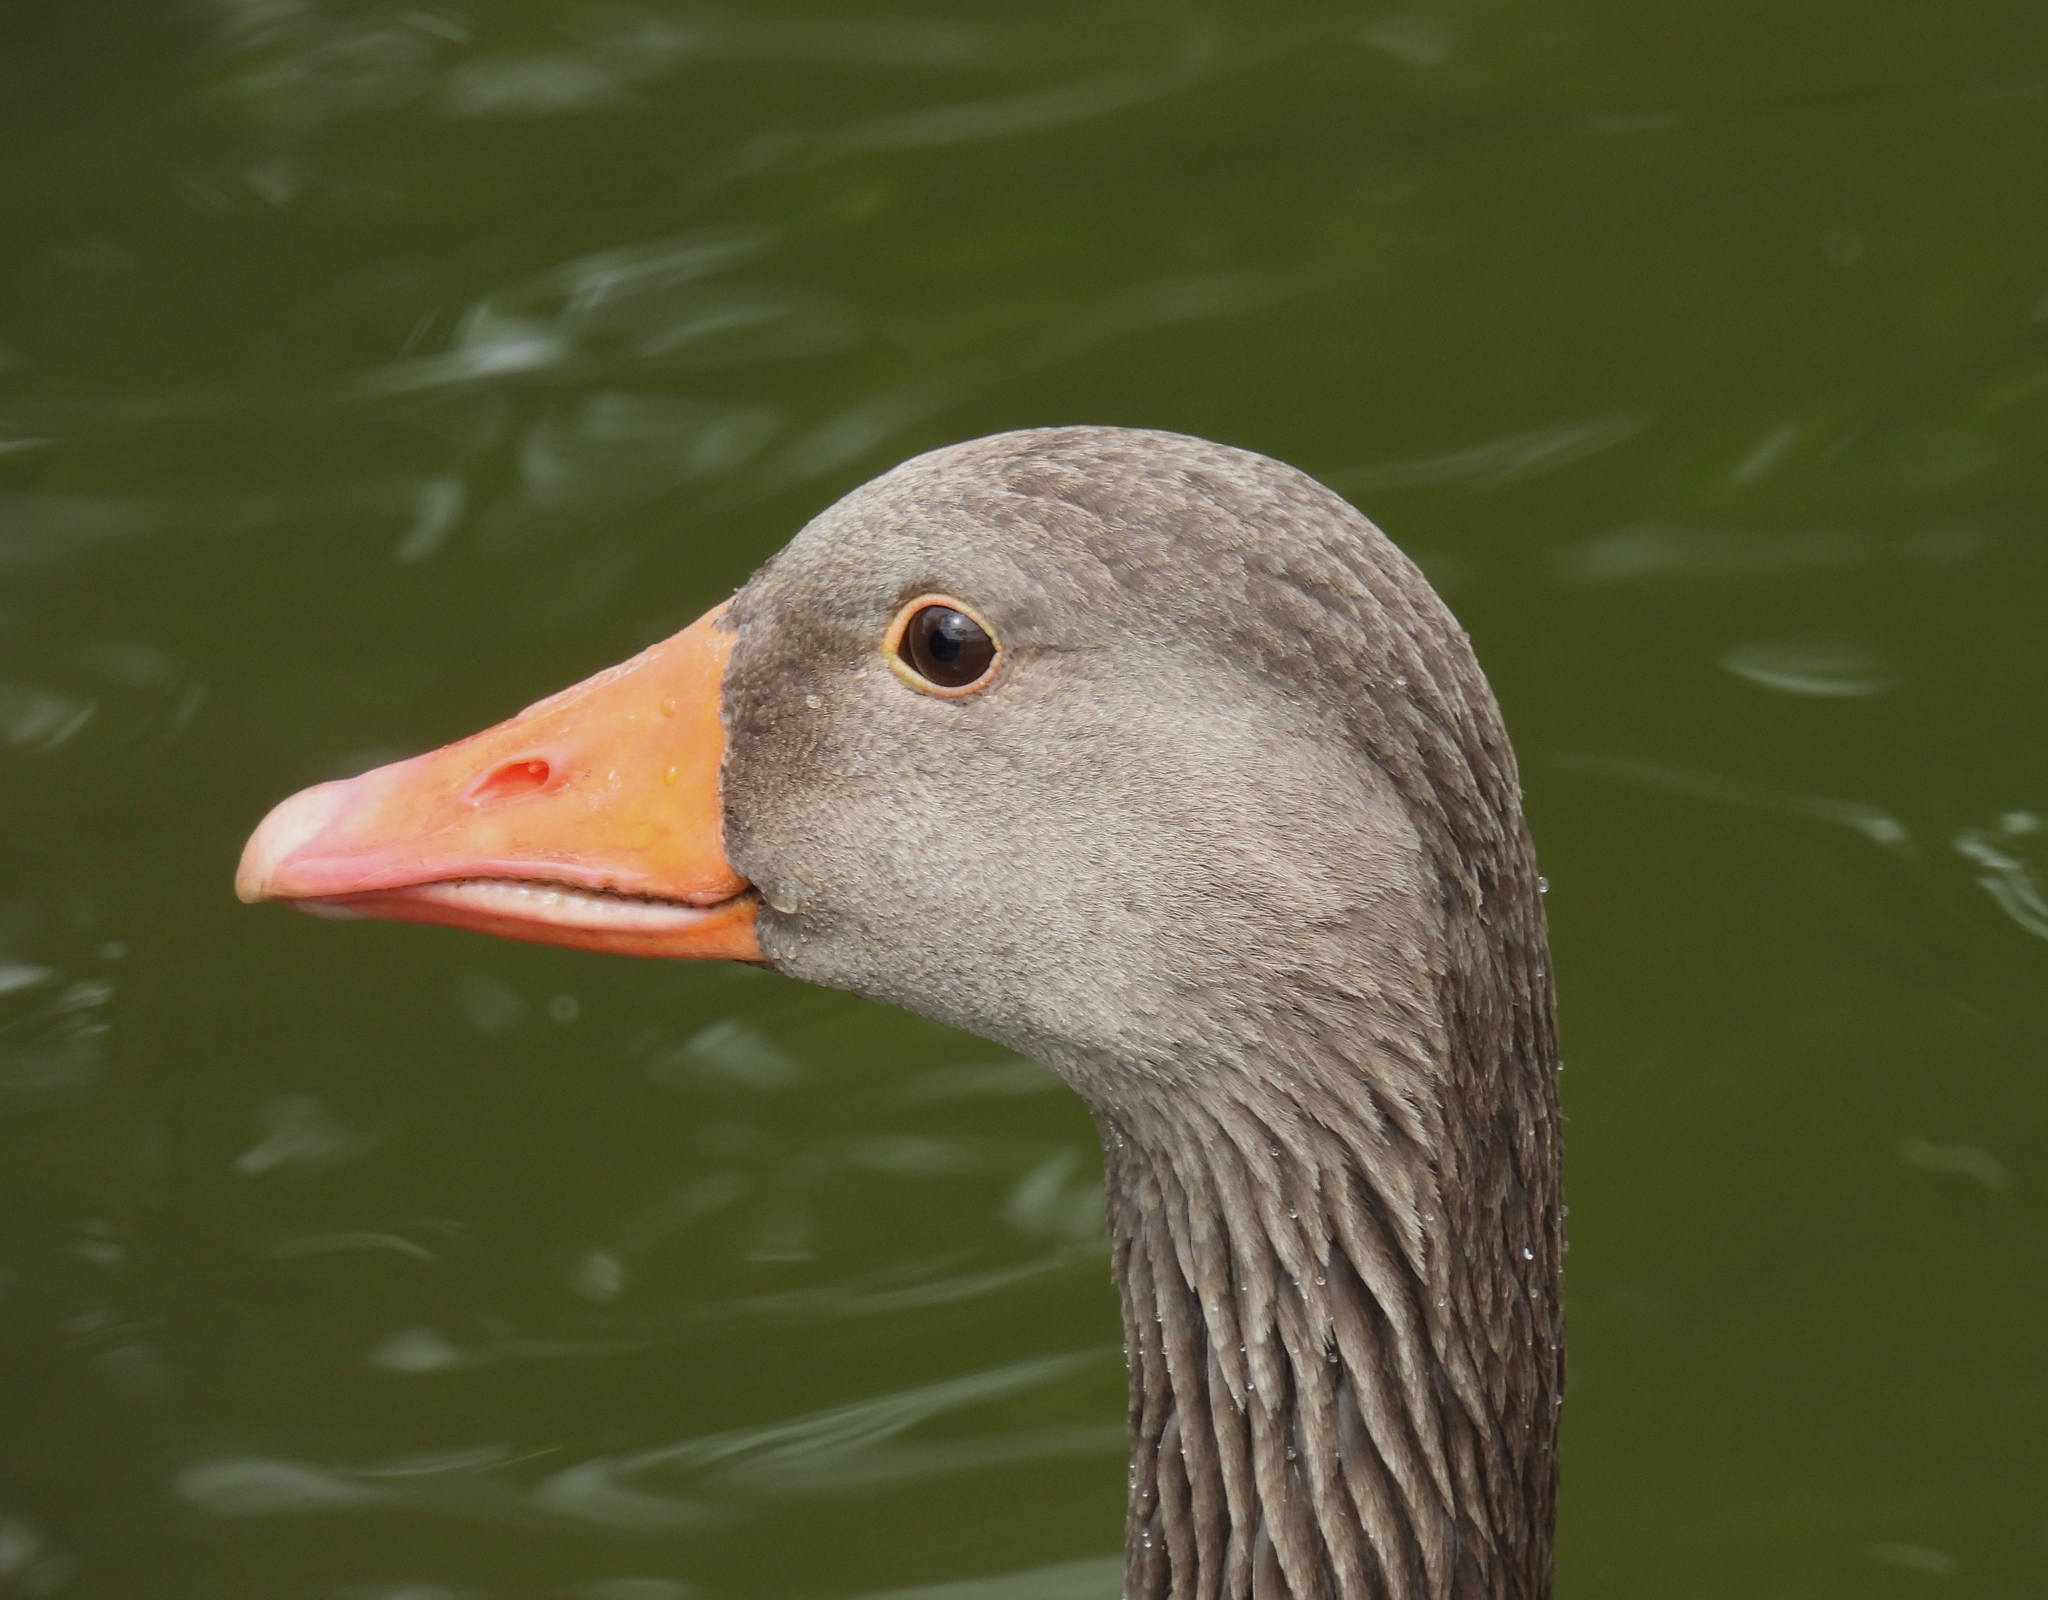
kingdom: Animalia
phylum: Chordata
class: Aves
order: Anseriformes
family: Anatidae
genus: Anser
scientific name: Anser anser
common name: Greylag goose
